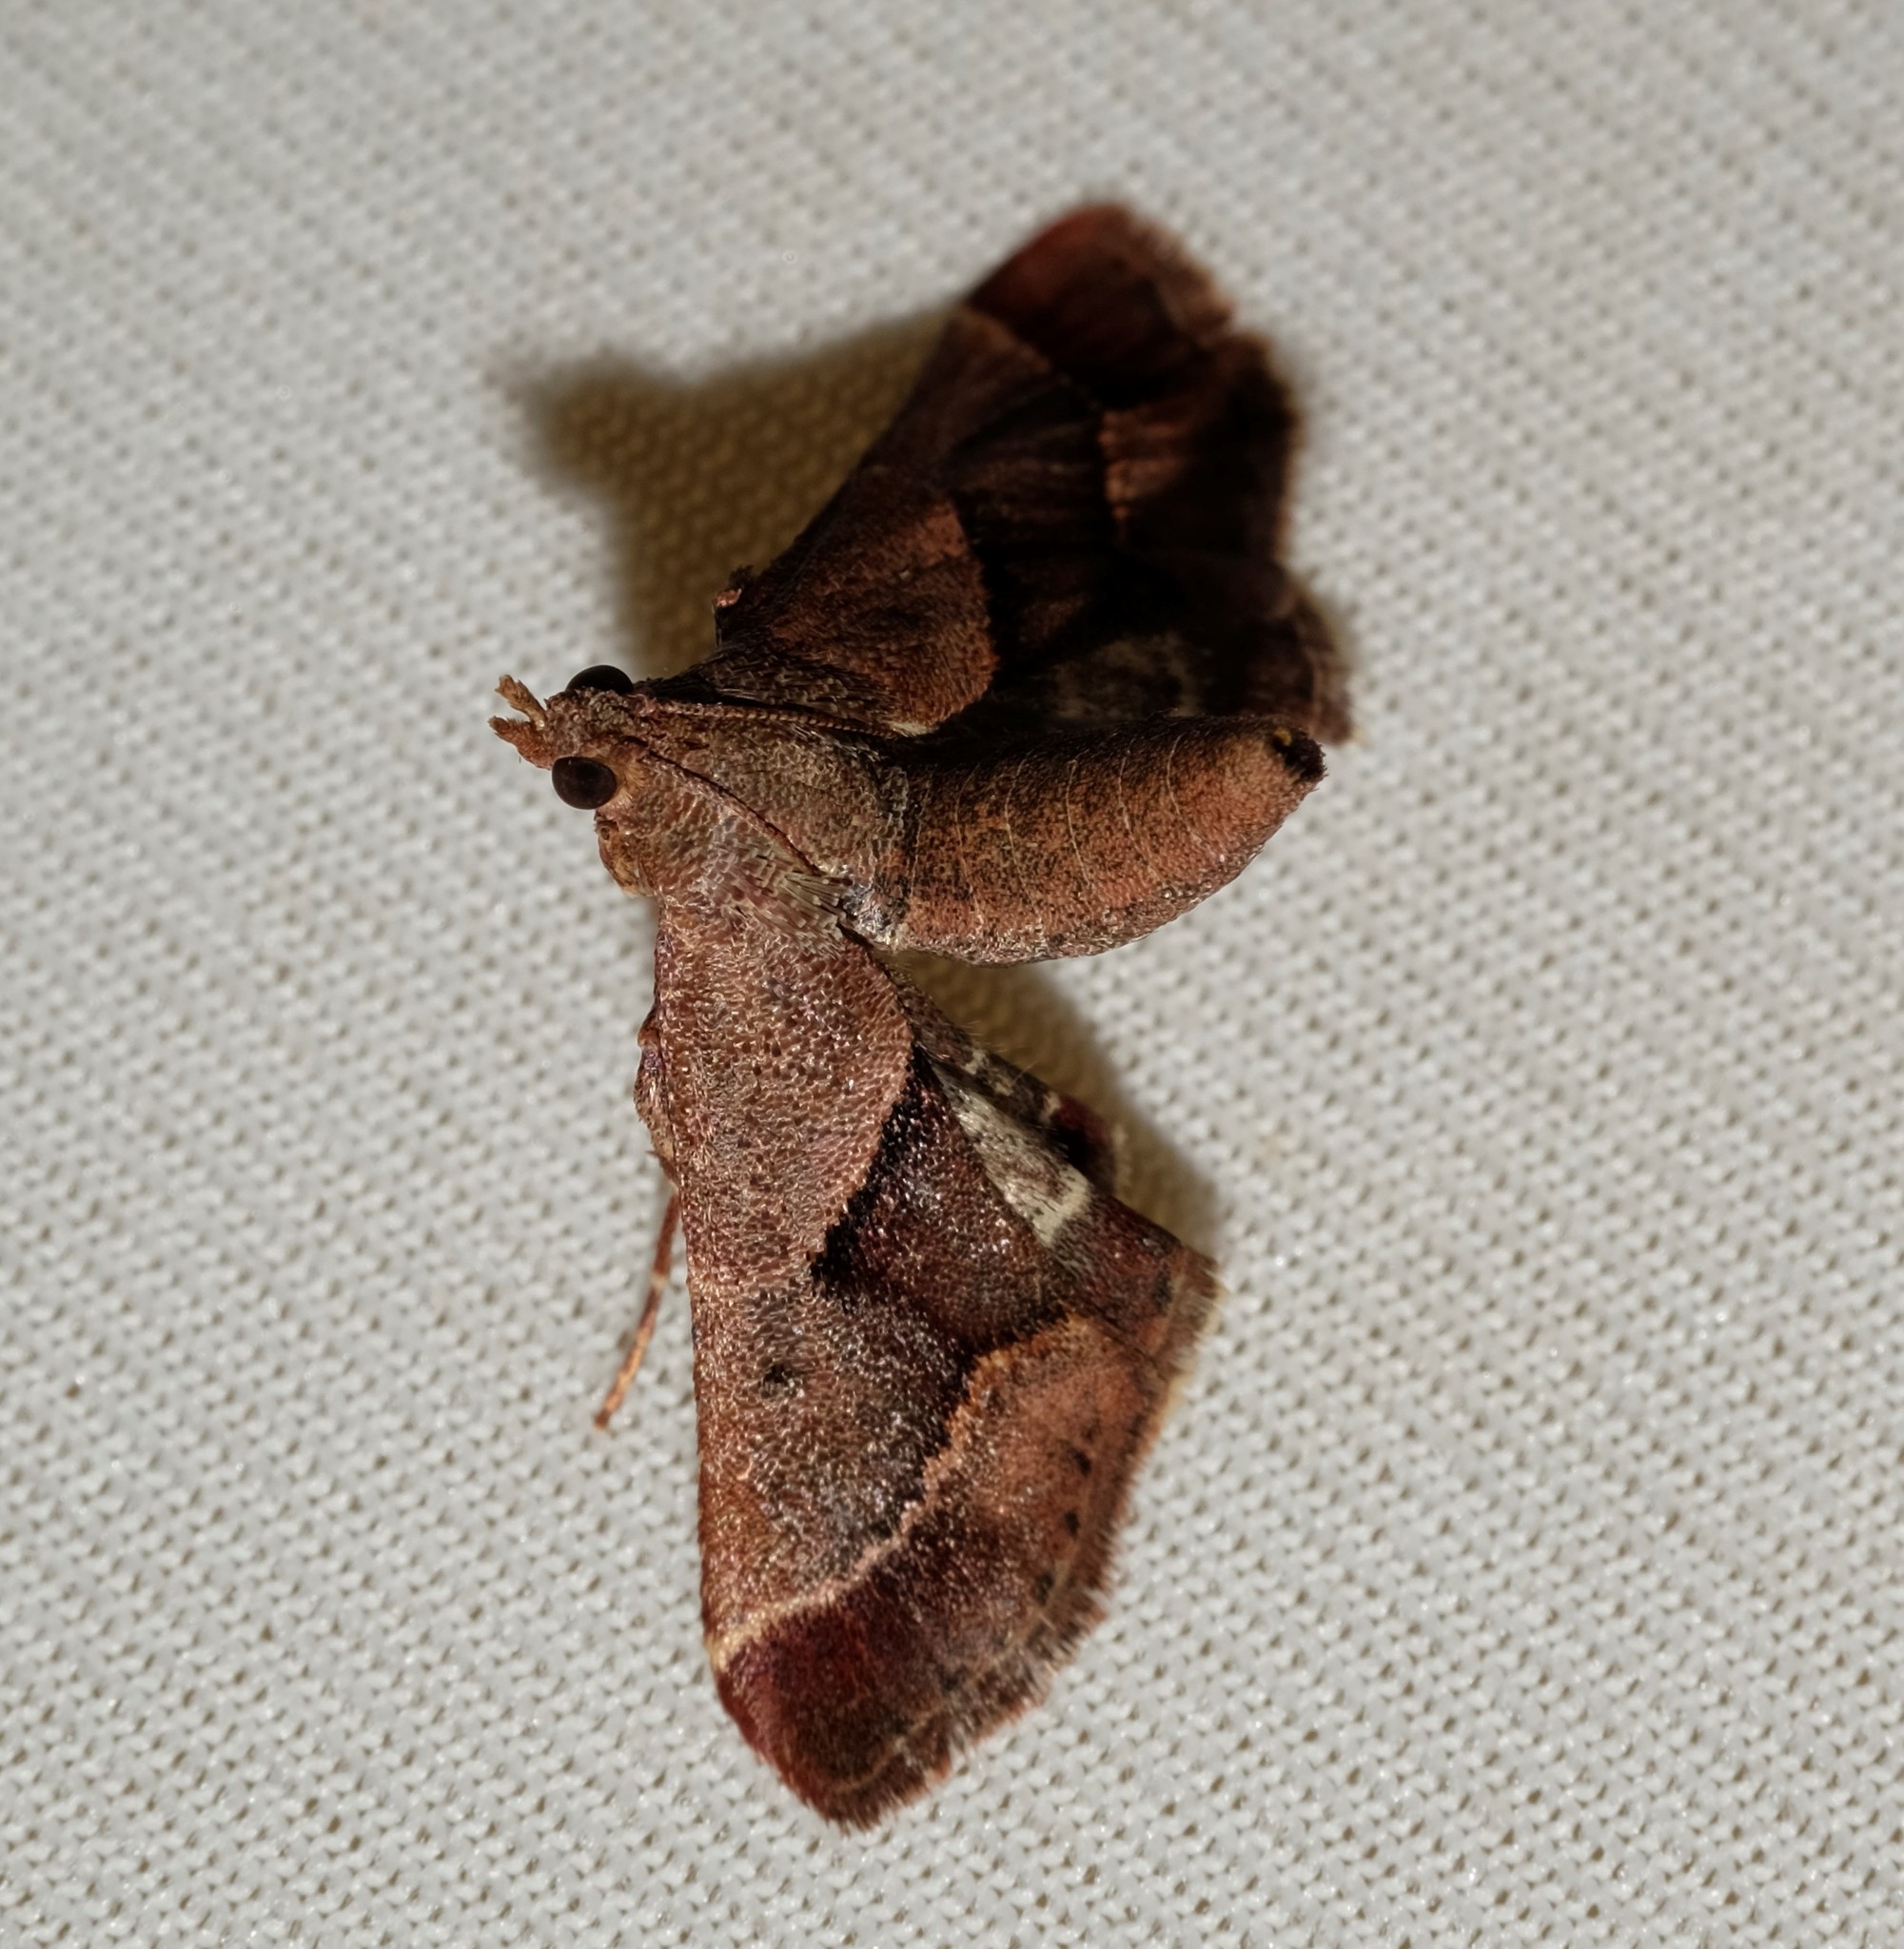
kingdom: Animalia
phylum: Arthropoda
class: Insecta
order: Lepidoptera
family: Pyralidae
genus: Gauna
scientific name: Gauna aegusalis
